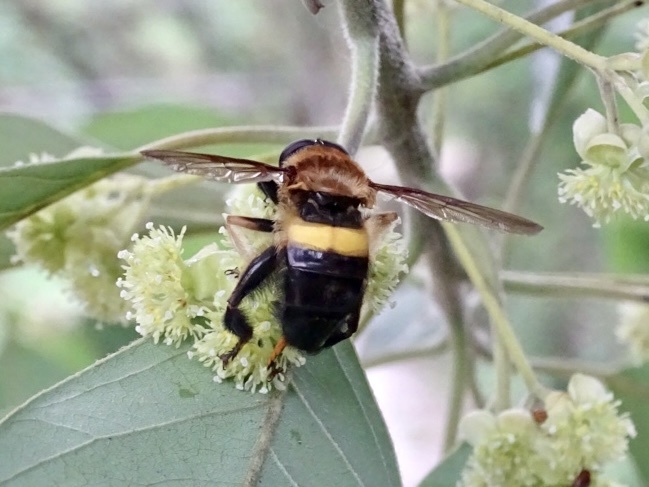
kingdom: Animalia
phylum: Arthropoda
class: Insecta
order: Diptera
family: Syrphidae
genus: Milesia
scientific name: Milesia balteata
